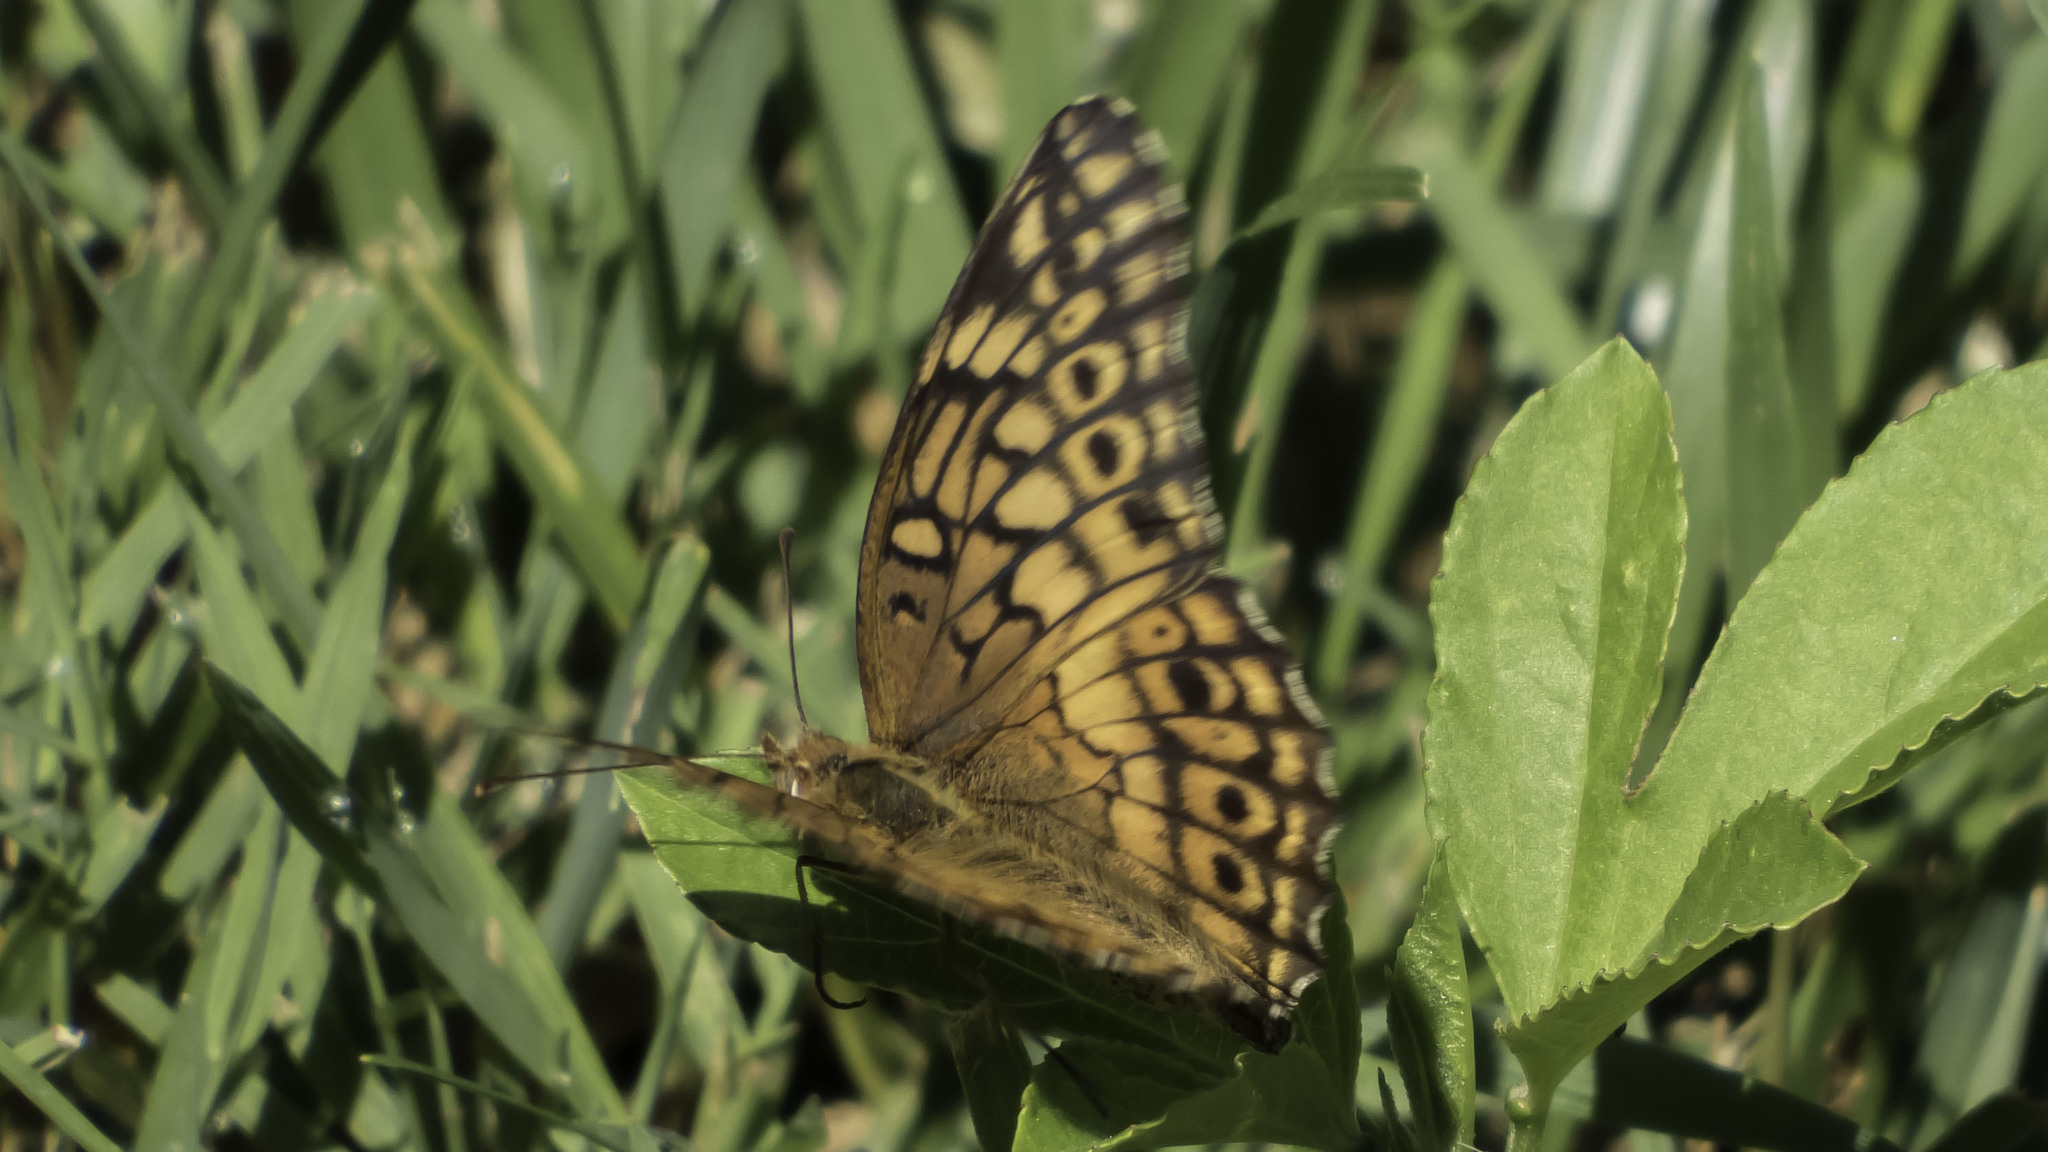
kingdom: Animalia
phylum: Arthropoda
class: Insecta
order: Lepidoptera
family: Nymphalidae
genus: Euptoieta
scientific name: Euptoieta claudia
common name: Variegated fritillary
